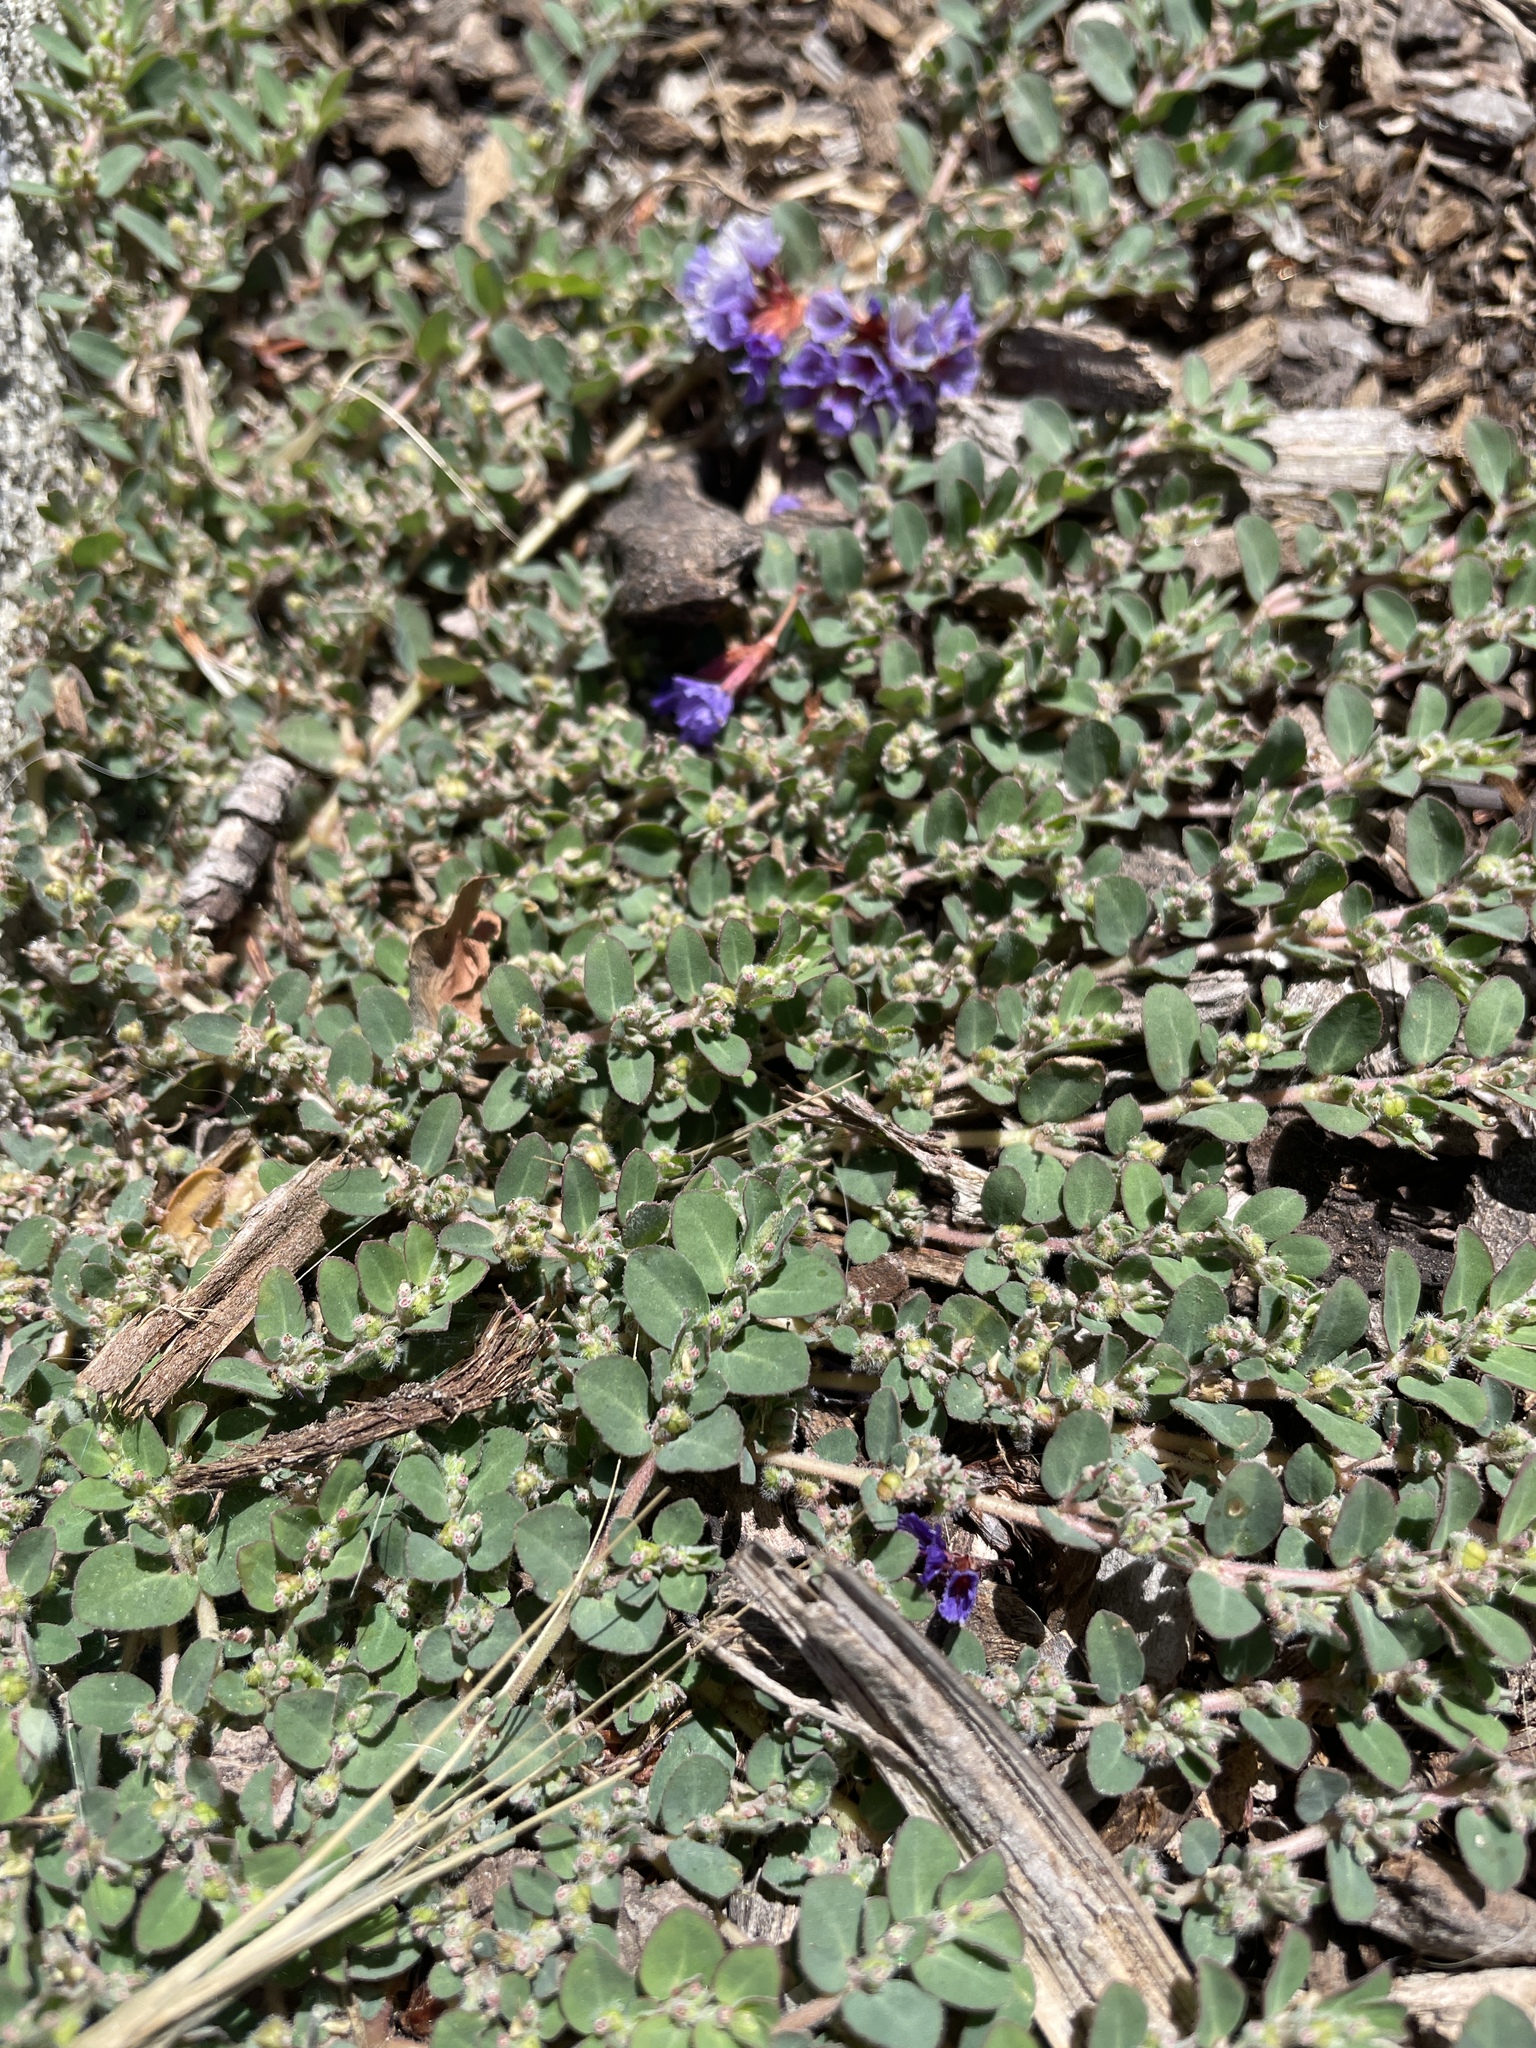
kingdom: Plantae
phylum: Tracheophyta
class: Magnoliopsida
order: Malpighiales
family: Euphorbiaceae
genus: Euphorbia
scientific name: Euphorbia prostrata
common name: Prostrate sandmat
